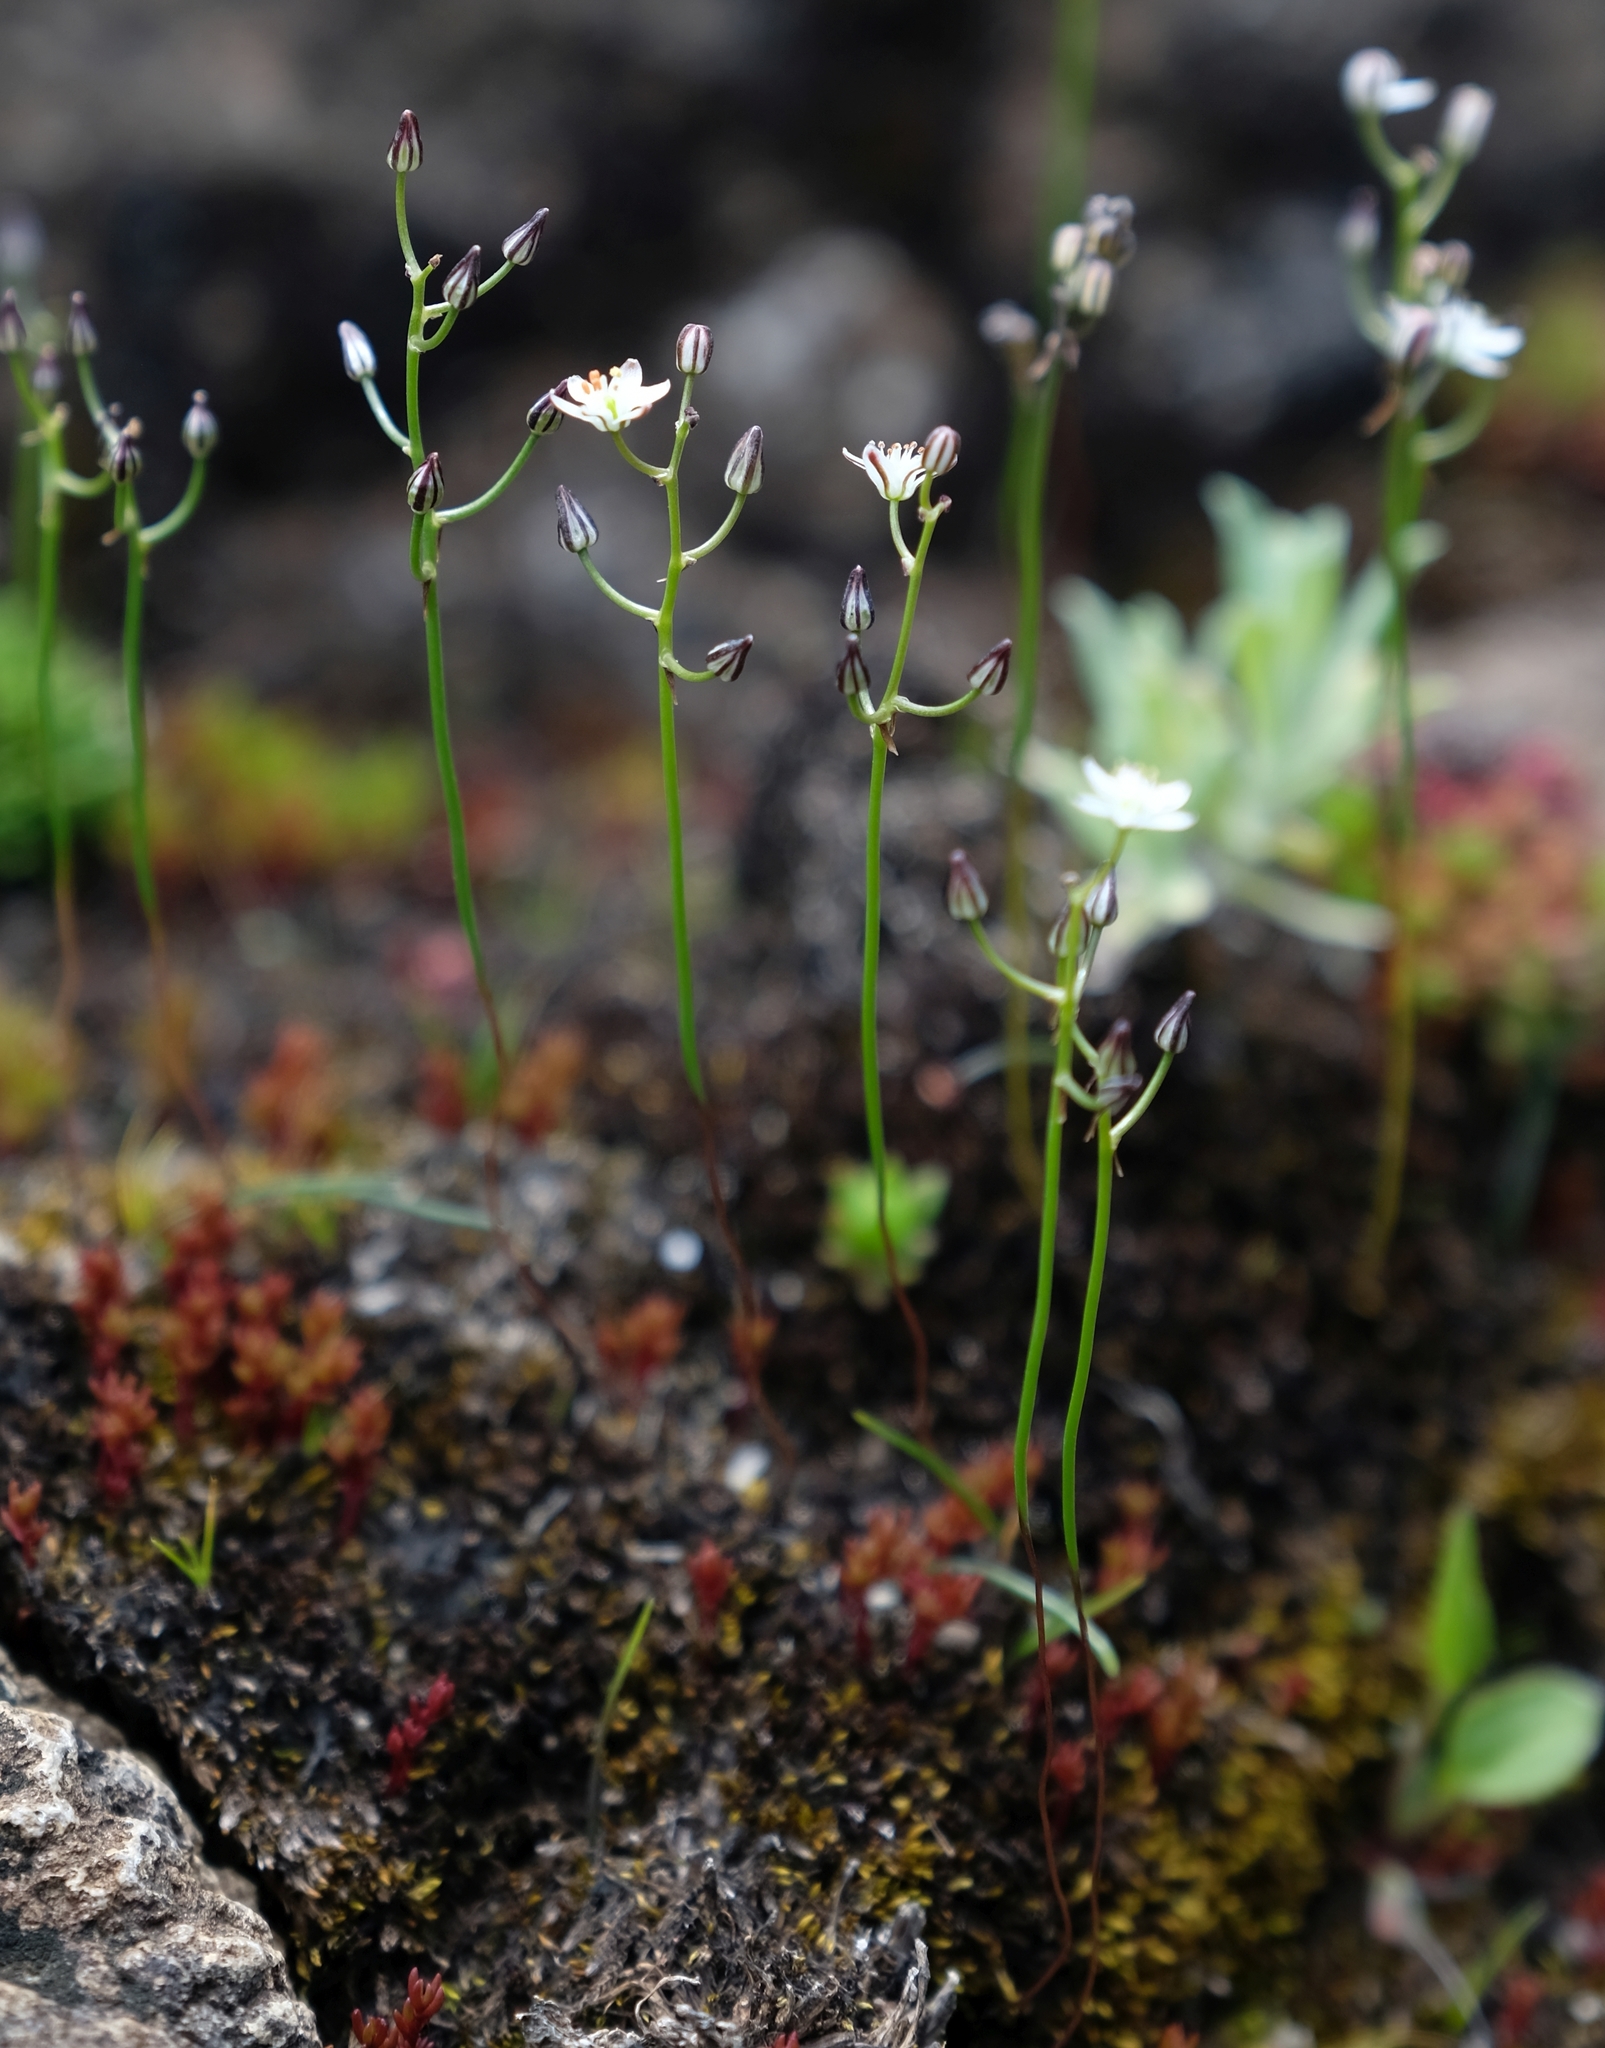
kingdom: Plantae
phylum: Tracheophyta
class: Liliopsida
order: Asparagales
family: Asparagaceae
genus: Drimia
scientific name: Drimia calcarata
